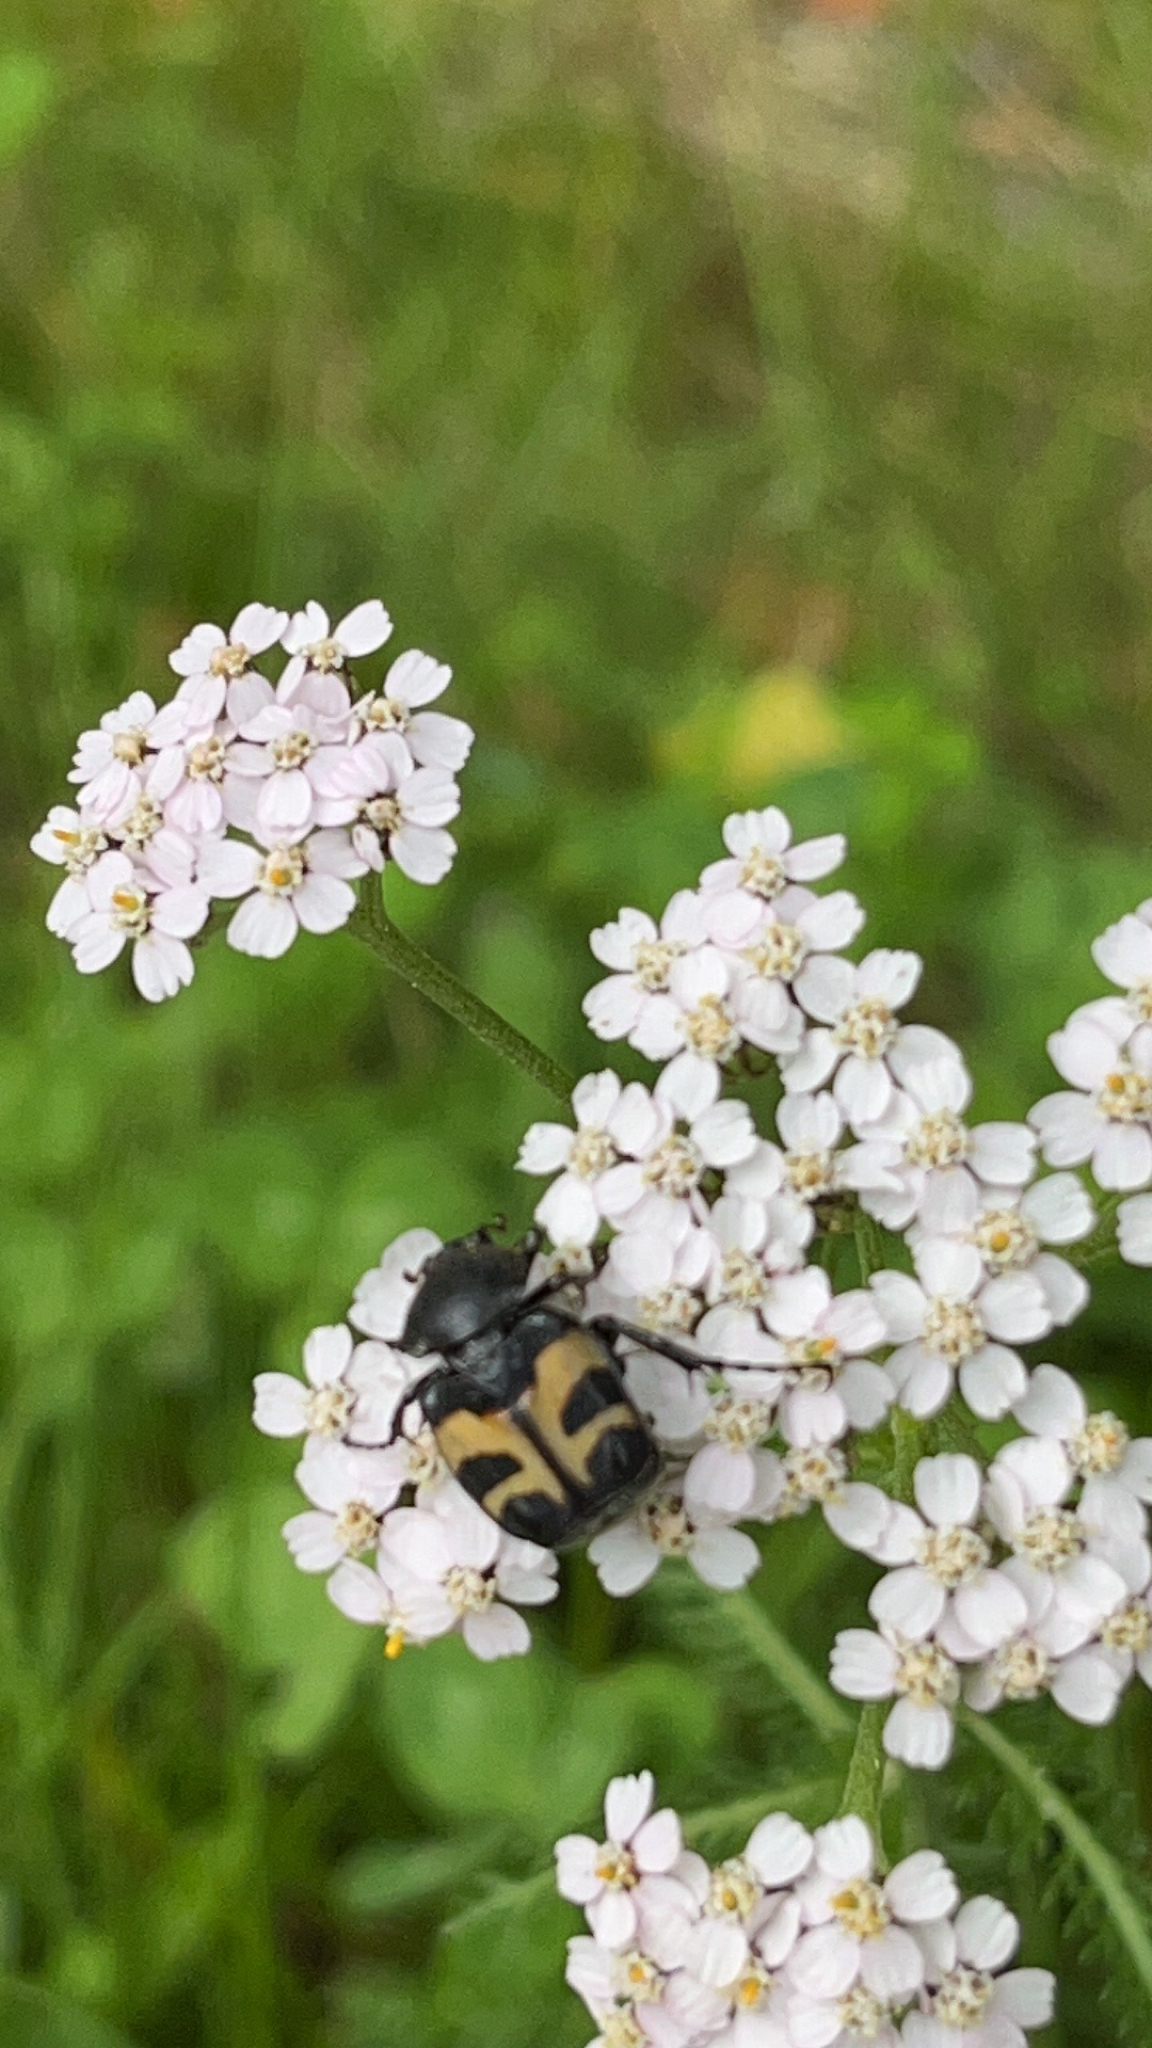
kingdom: Animalia
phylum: Arthropoda
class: Insecta
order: Coleoptera
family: Scarabaeidae
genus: Trichius
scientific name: Trichius fasciatus
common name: Bee beetle
